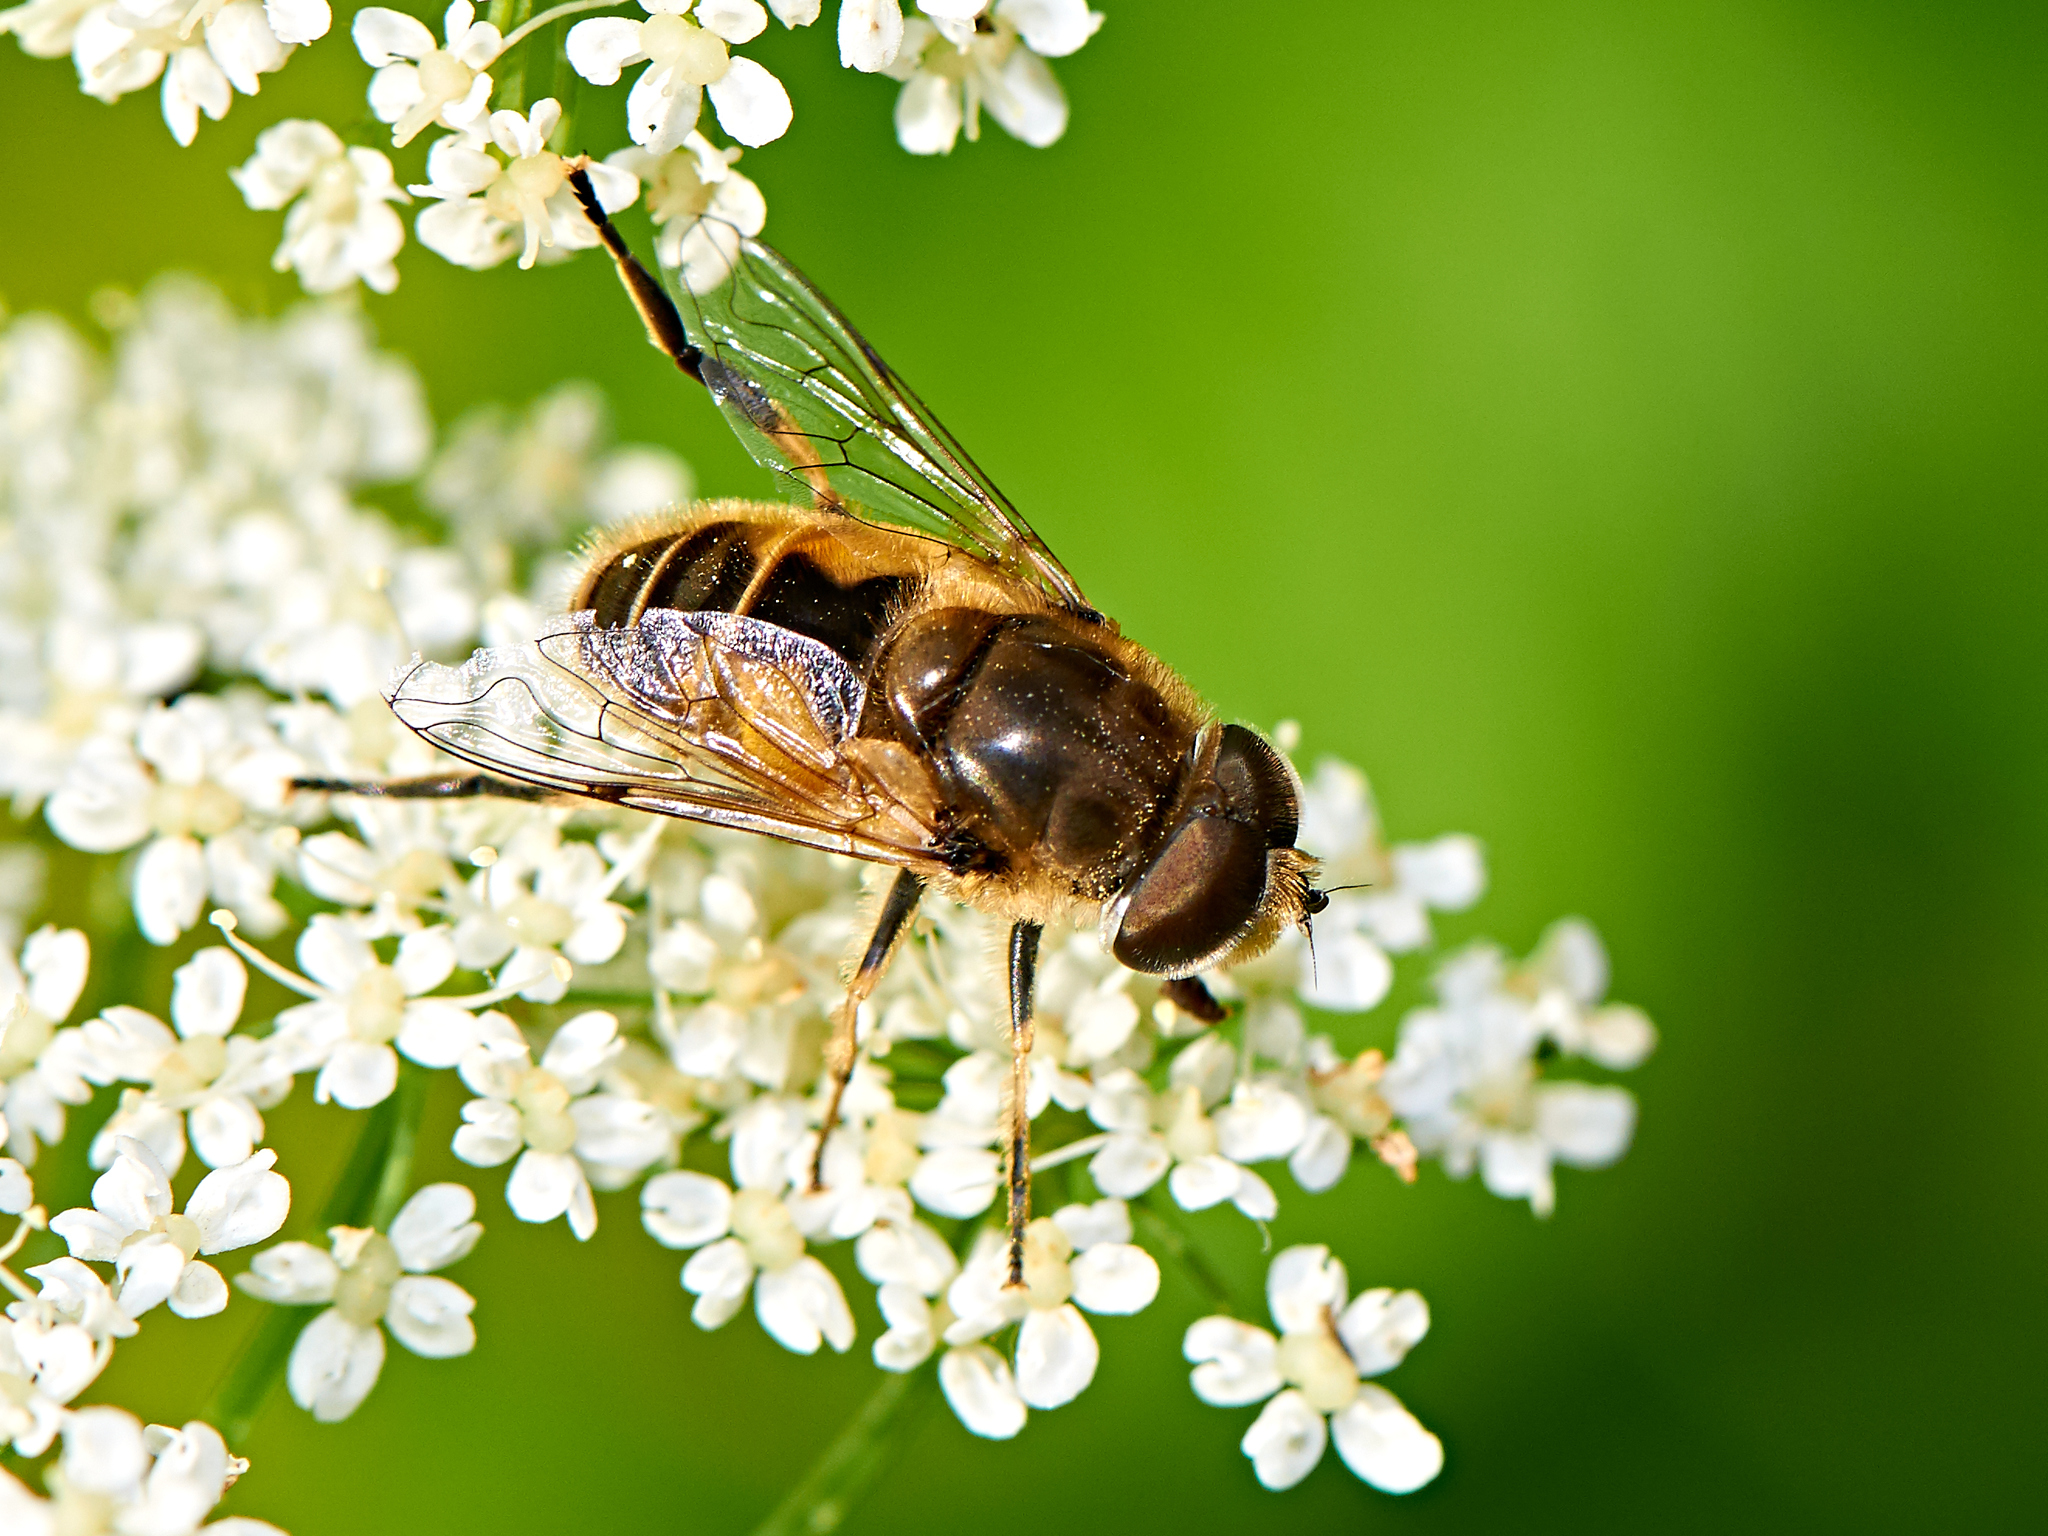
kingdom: Animalia
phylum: Arthropoda
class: Insecta
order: Diptera
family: Syrphidae
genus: Eristalis
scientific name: Eristalis arbustorum
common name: Hover fly
